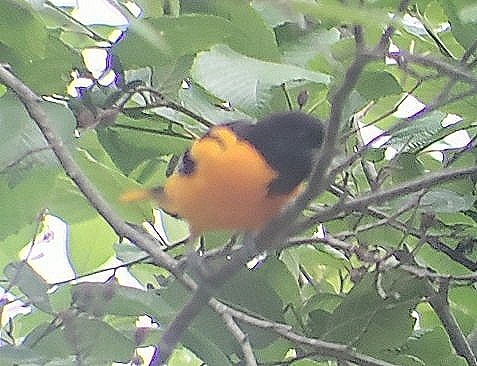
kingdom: Animalia
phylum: Chordata
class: Aves
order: Passeriformes
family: Icteridae
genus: Icterus
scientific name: Icterus galbula
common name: Baltimore oriole
